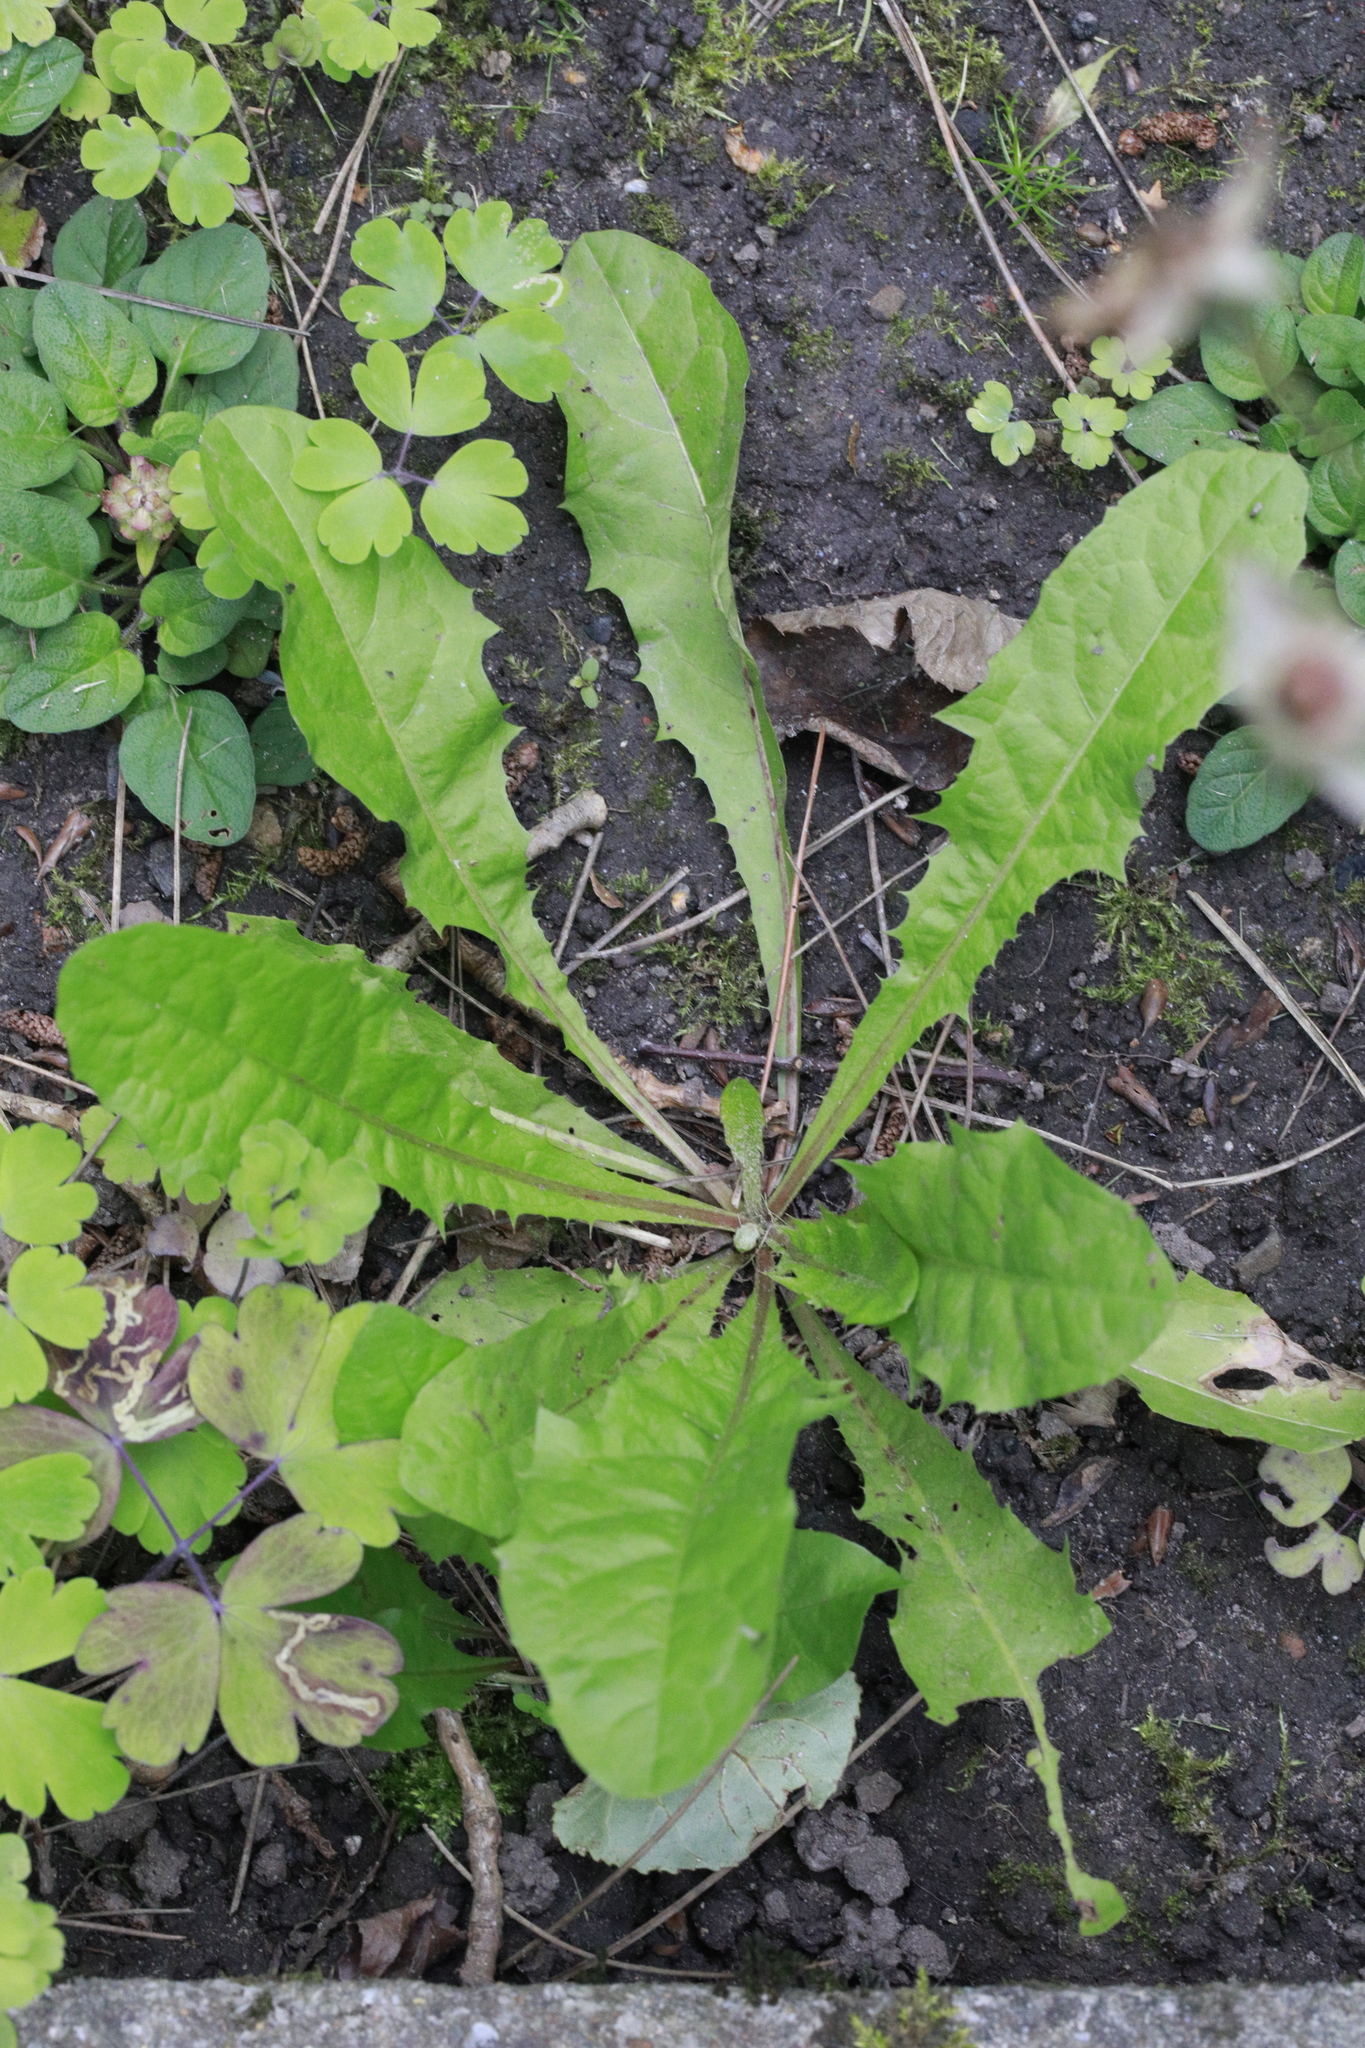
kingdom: Plantae
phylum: Tracheophyta
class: Magnoliopsida
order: Asterales
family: Asteraceae
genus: Taraxacum
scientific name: Taraxacum officinale
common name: Common dandelion
